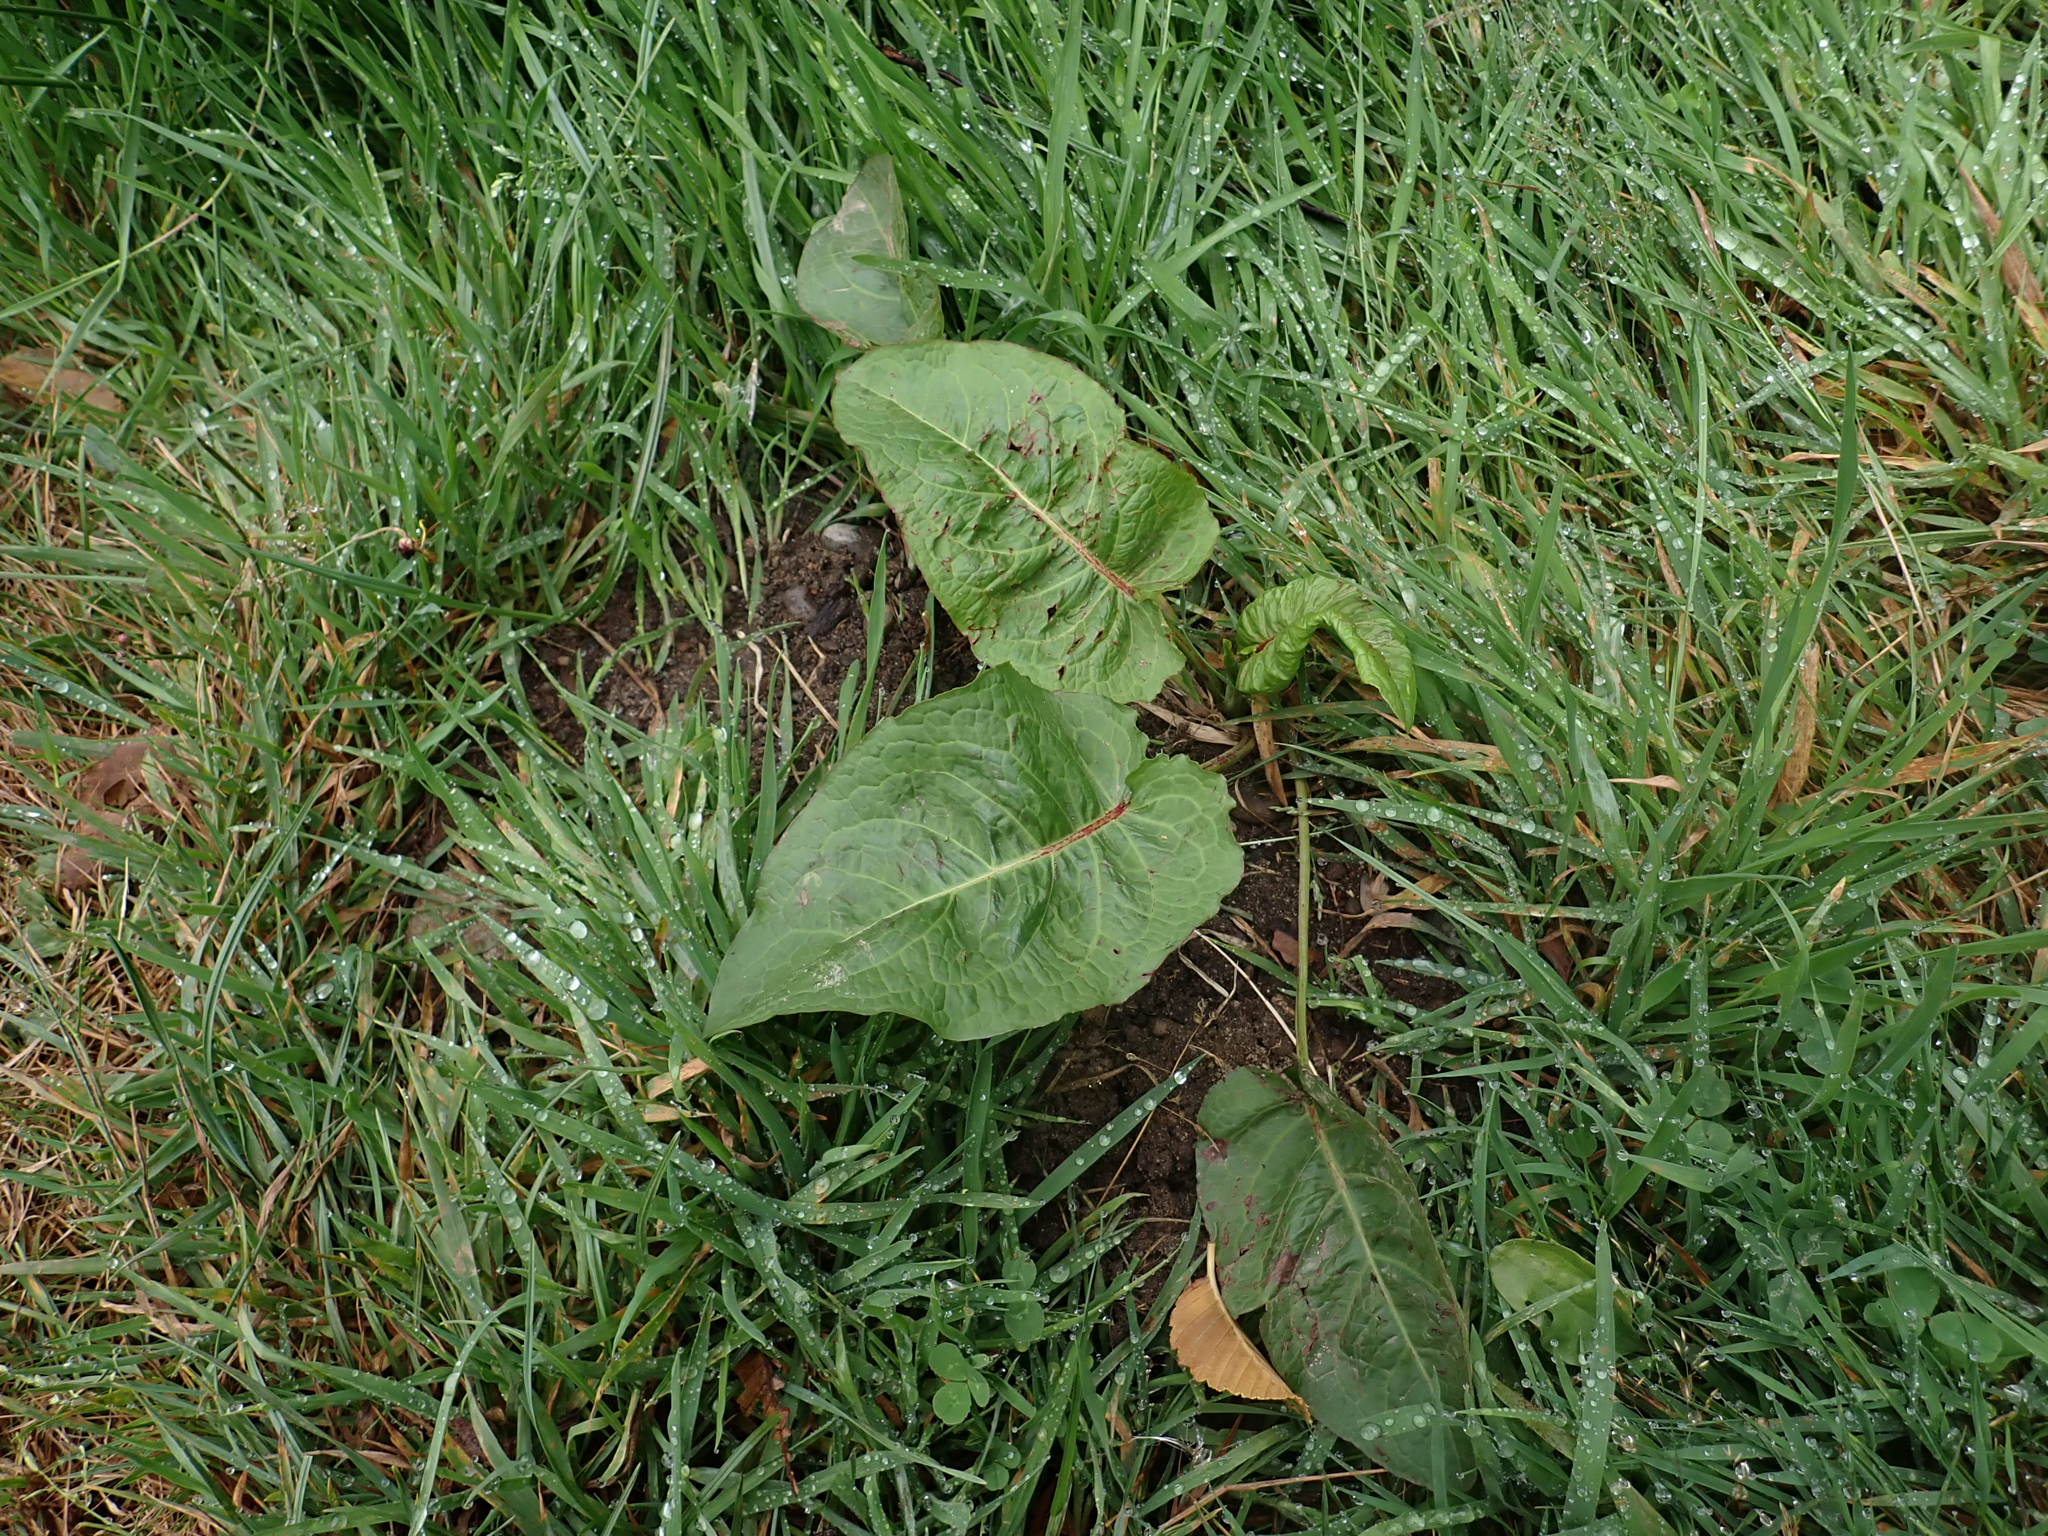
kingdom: Plantae
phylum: Tracheophyta
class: Magnoliopsida
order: Caryophyllales
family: Polygonaceae
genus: Rumex
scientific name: Rumex obtusifolius
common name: Bitter dock
